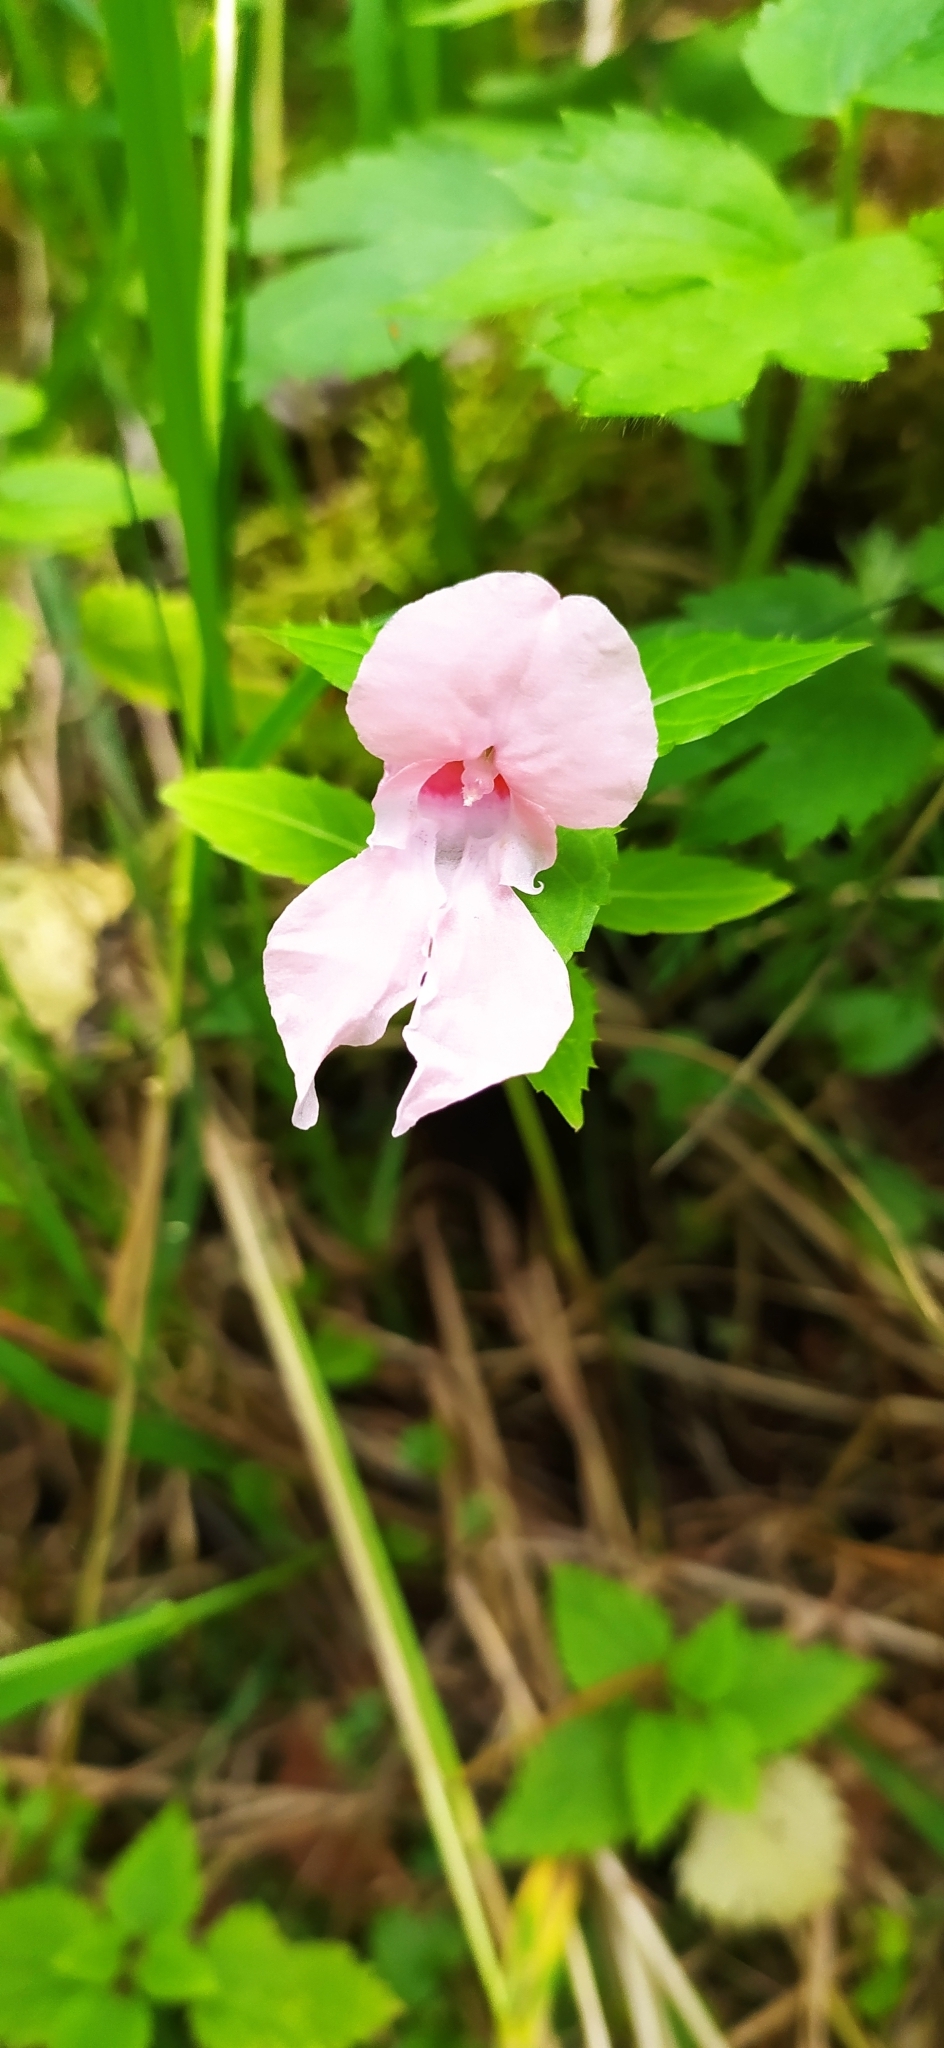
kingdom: Plantae
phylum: Tracheophyta
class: Magnoliopsida
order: Ericales
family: Balsaminaceae
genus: Impatiens
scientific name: Impatiens glandulifera
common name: Himalayan balsam
